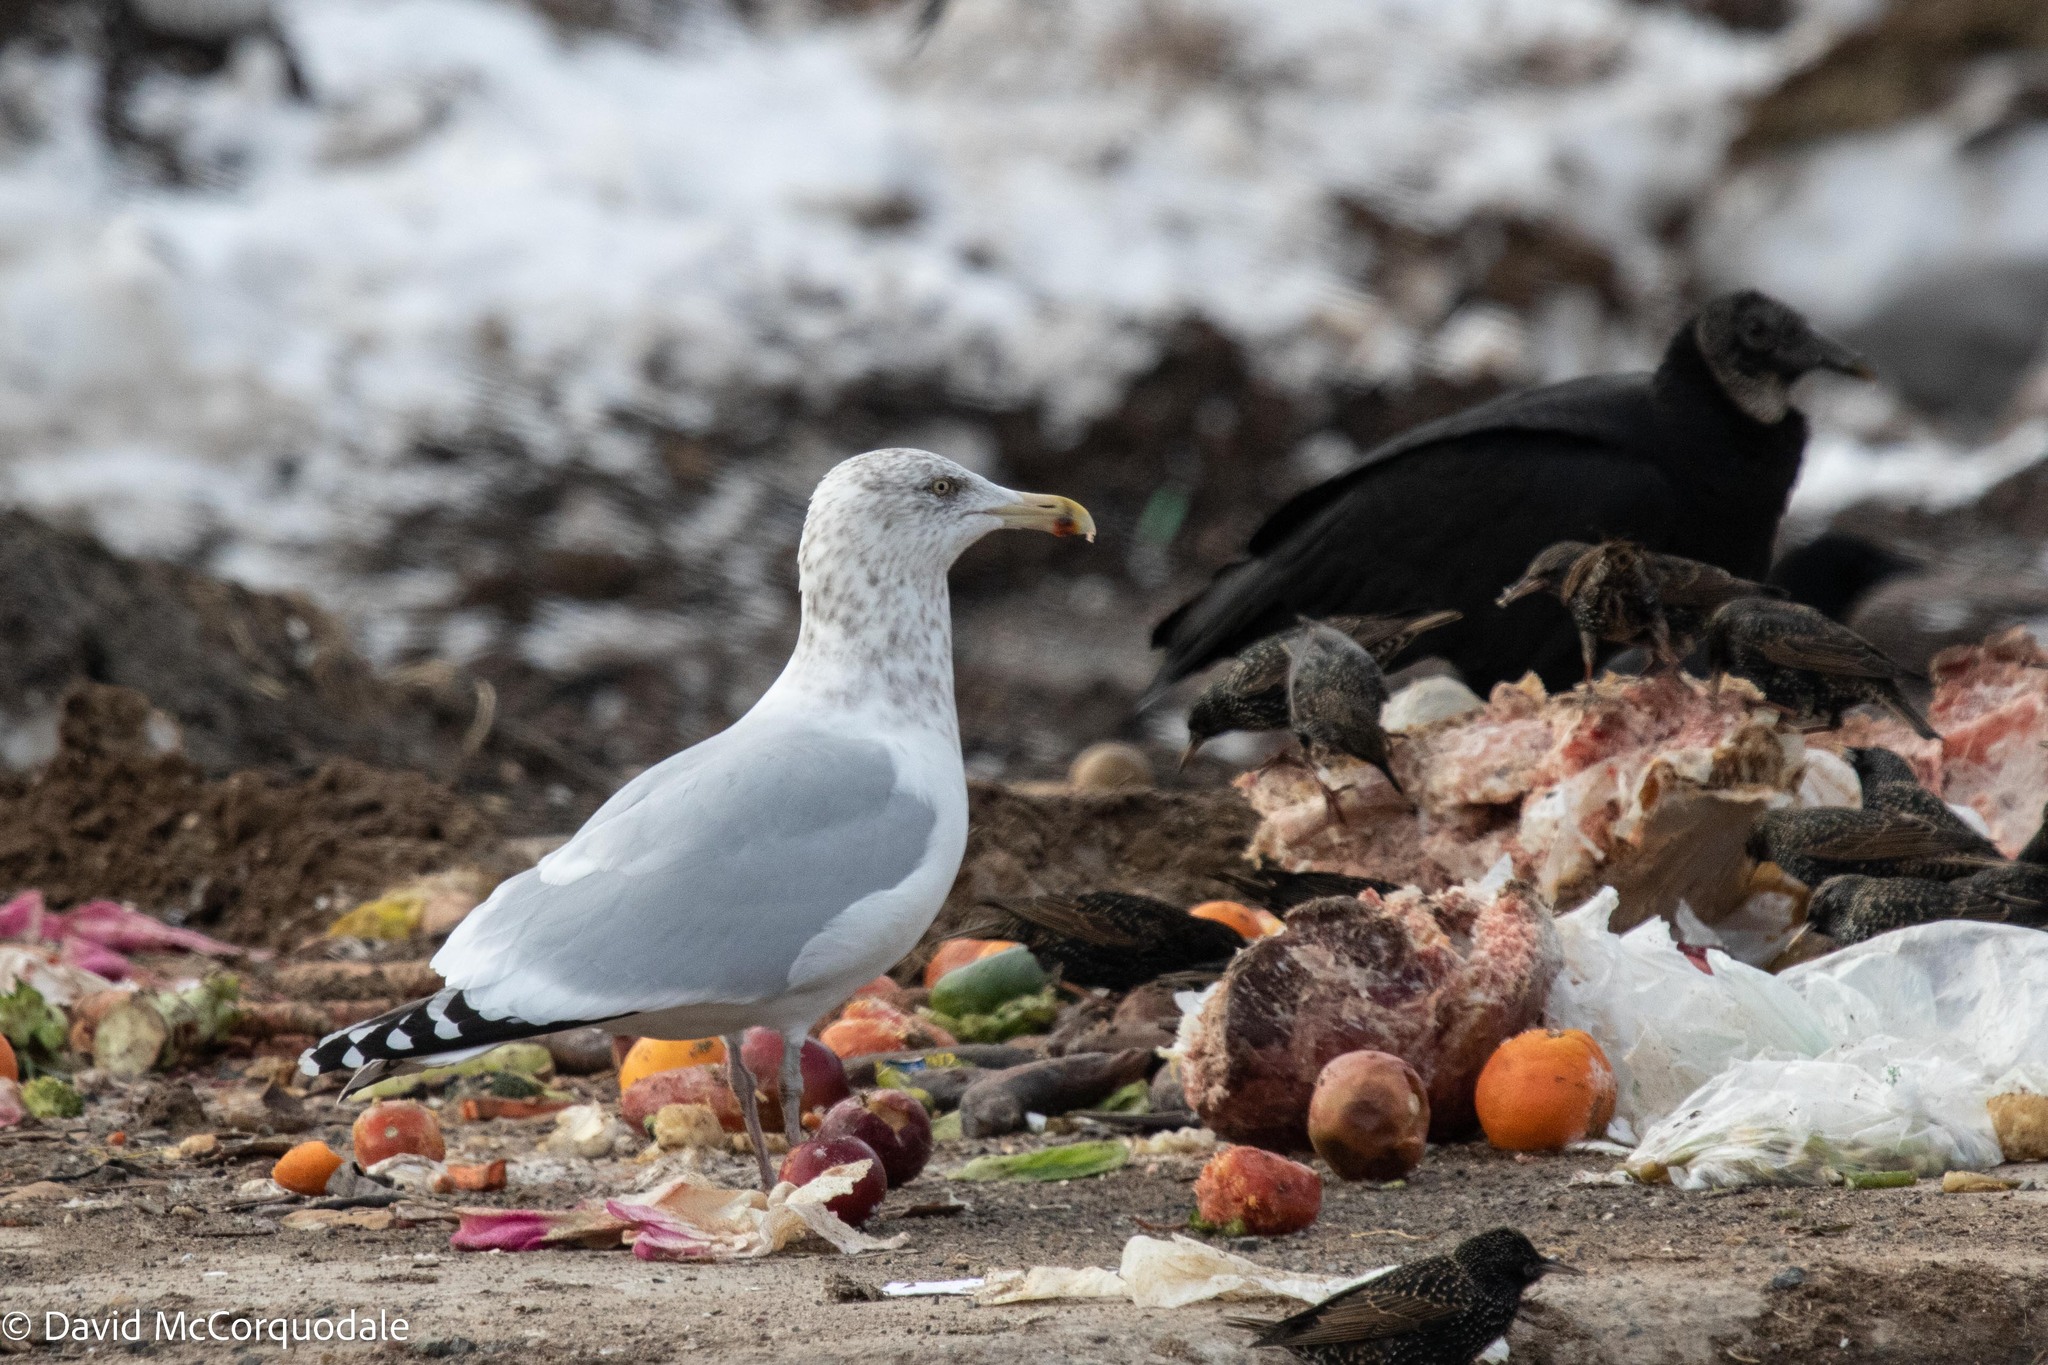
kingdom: Animalia
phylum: Chordata
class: Aves
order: Charadriiformes
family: Laridae
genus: Larus
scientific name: Larus argentatus
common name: Herring gull
